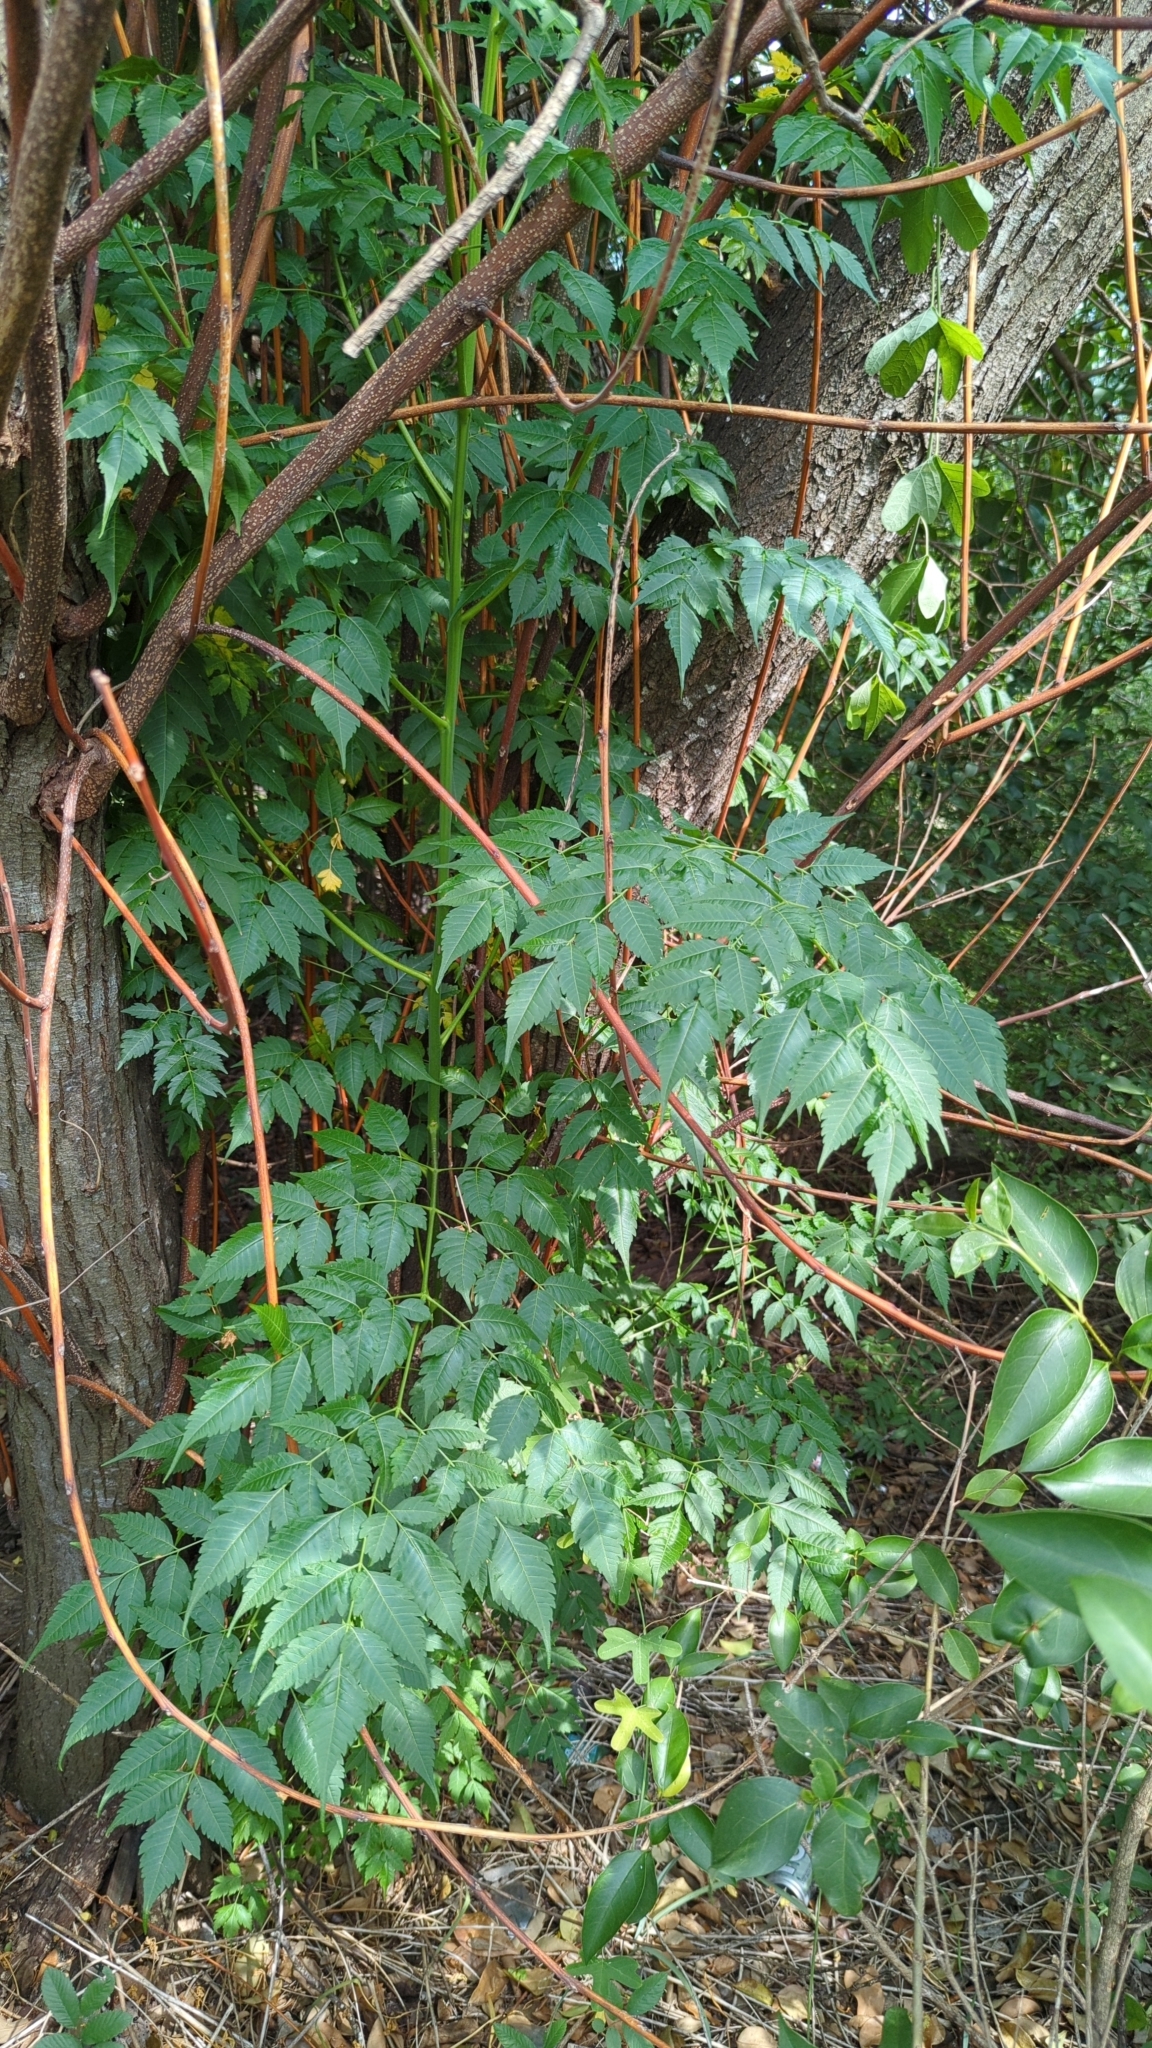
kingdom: Plantae
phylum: Tracheophyta
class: Magnoliopsida
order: Sapindales
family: Meliaceae
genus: Melia
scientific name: Melia azedarach
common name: Chinaberrytree
